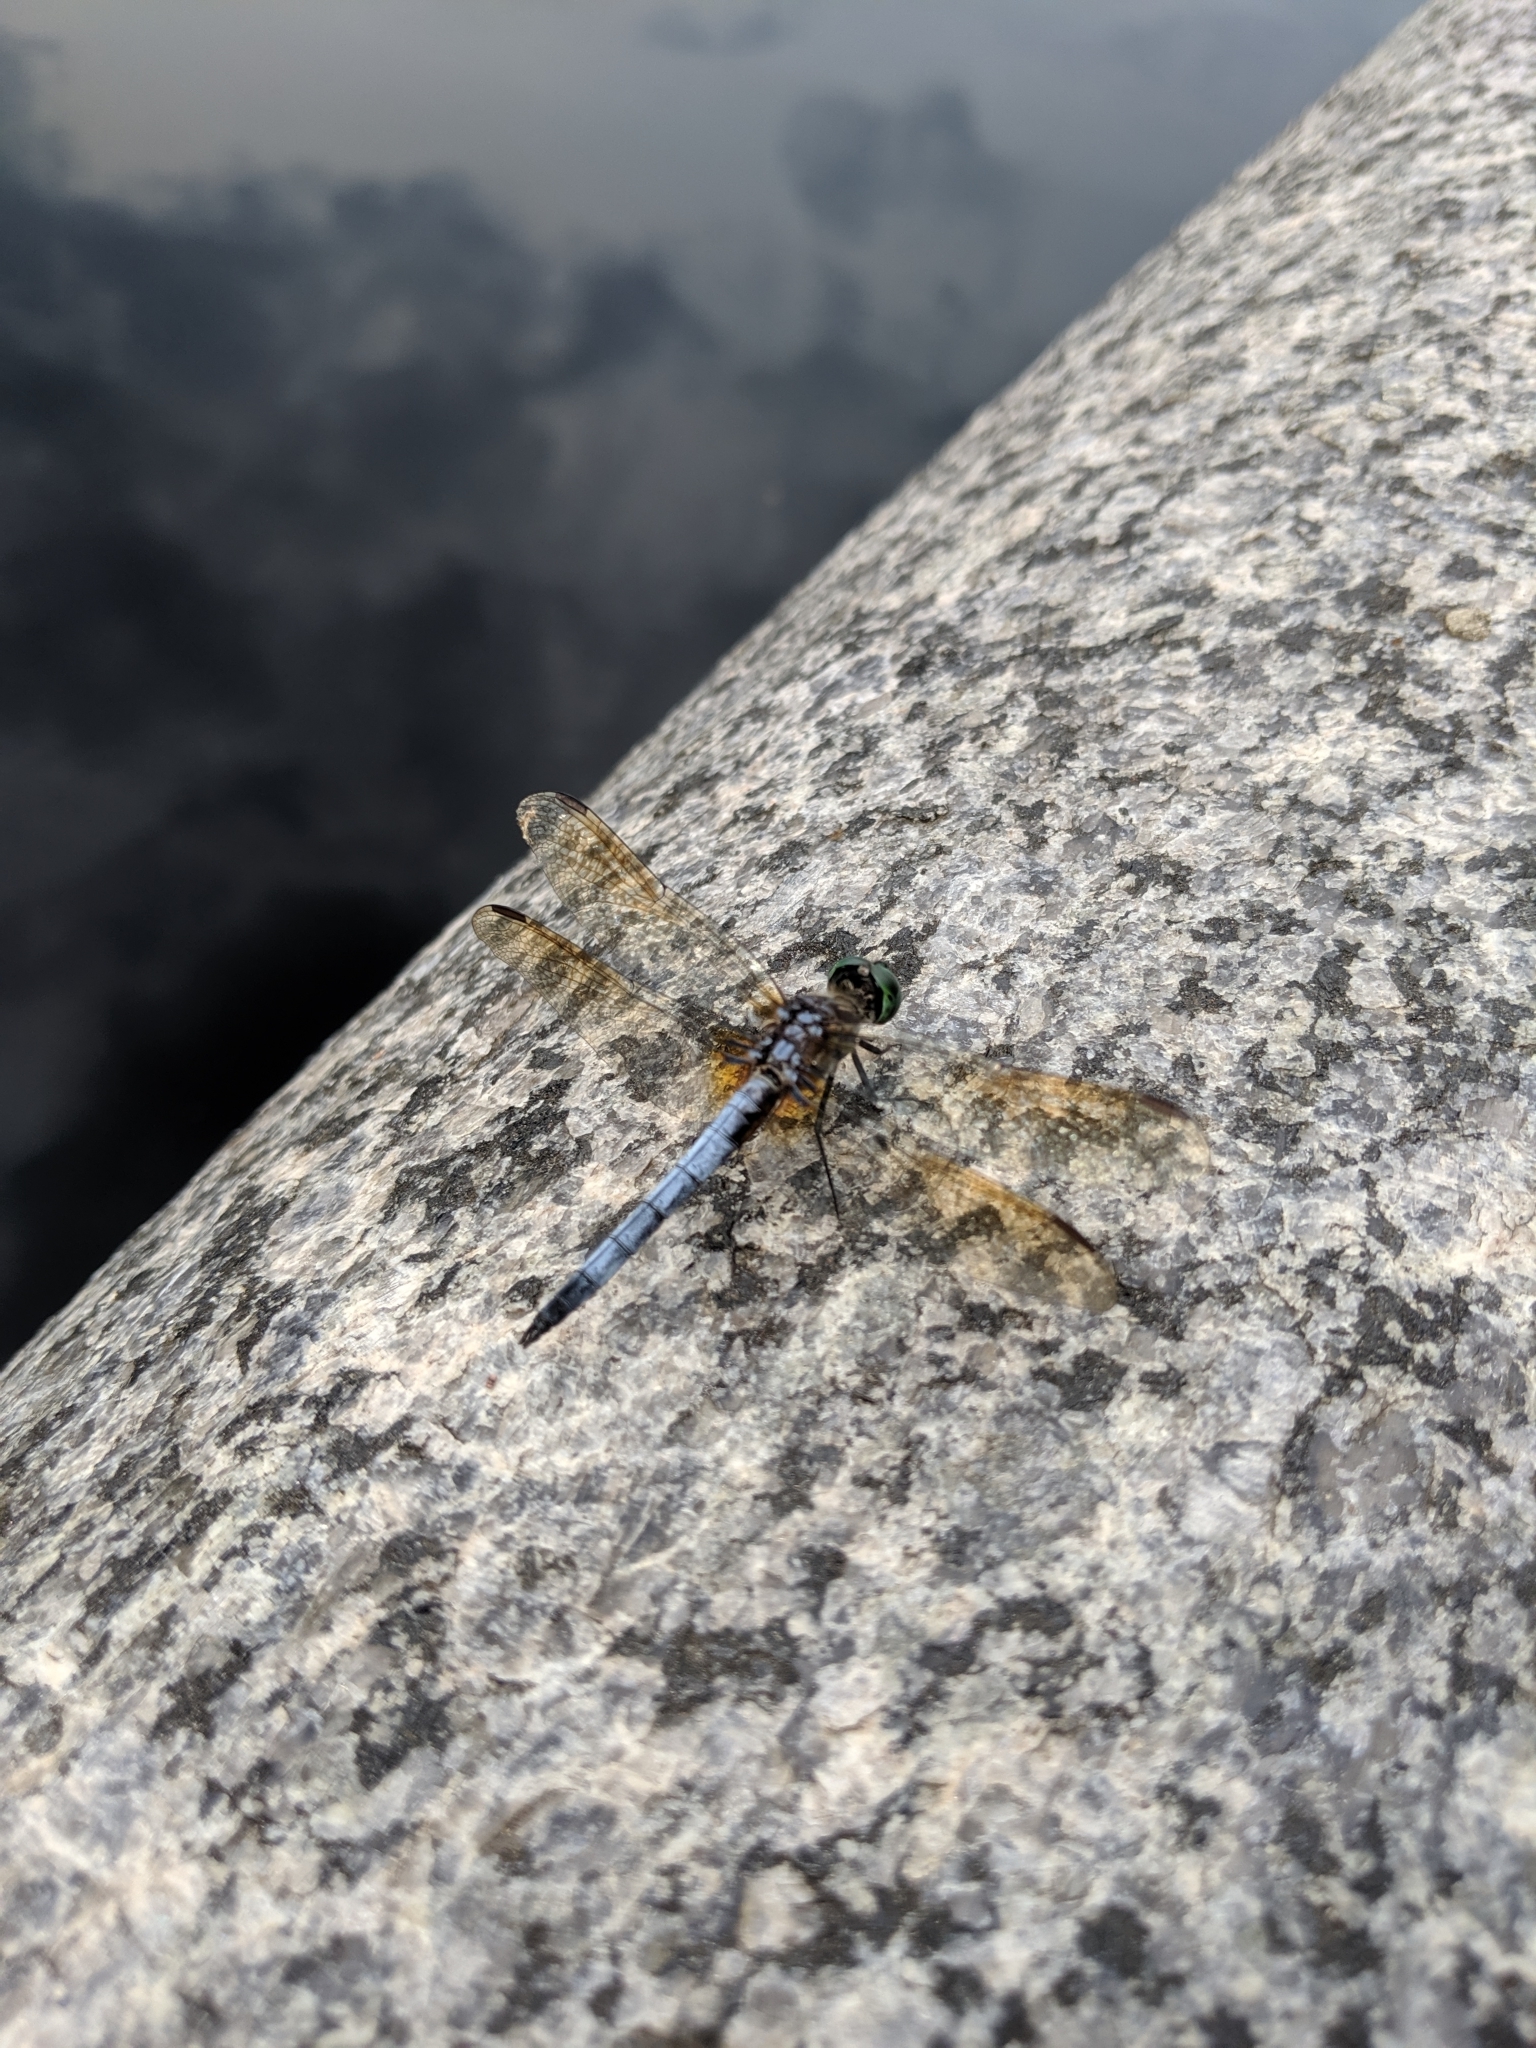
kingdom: Animalia
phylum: Arthropoda
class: Insecta
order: Odonata
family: Libellulidae
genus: Pachydiplax
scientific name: Pachydiplax longipennis
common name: Blue dasher
